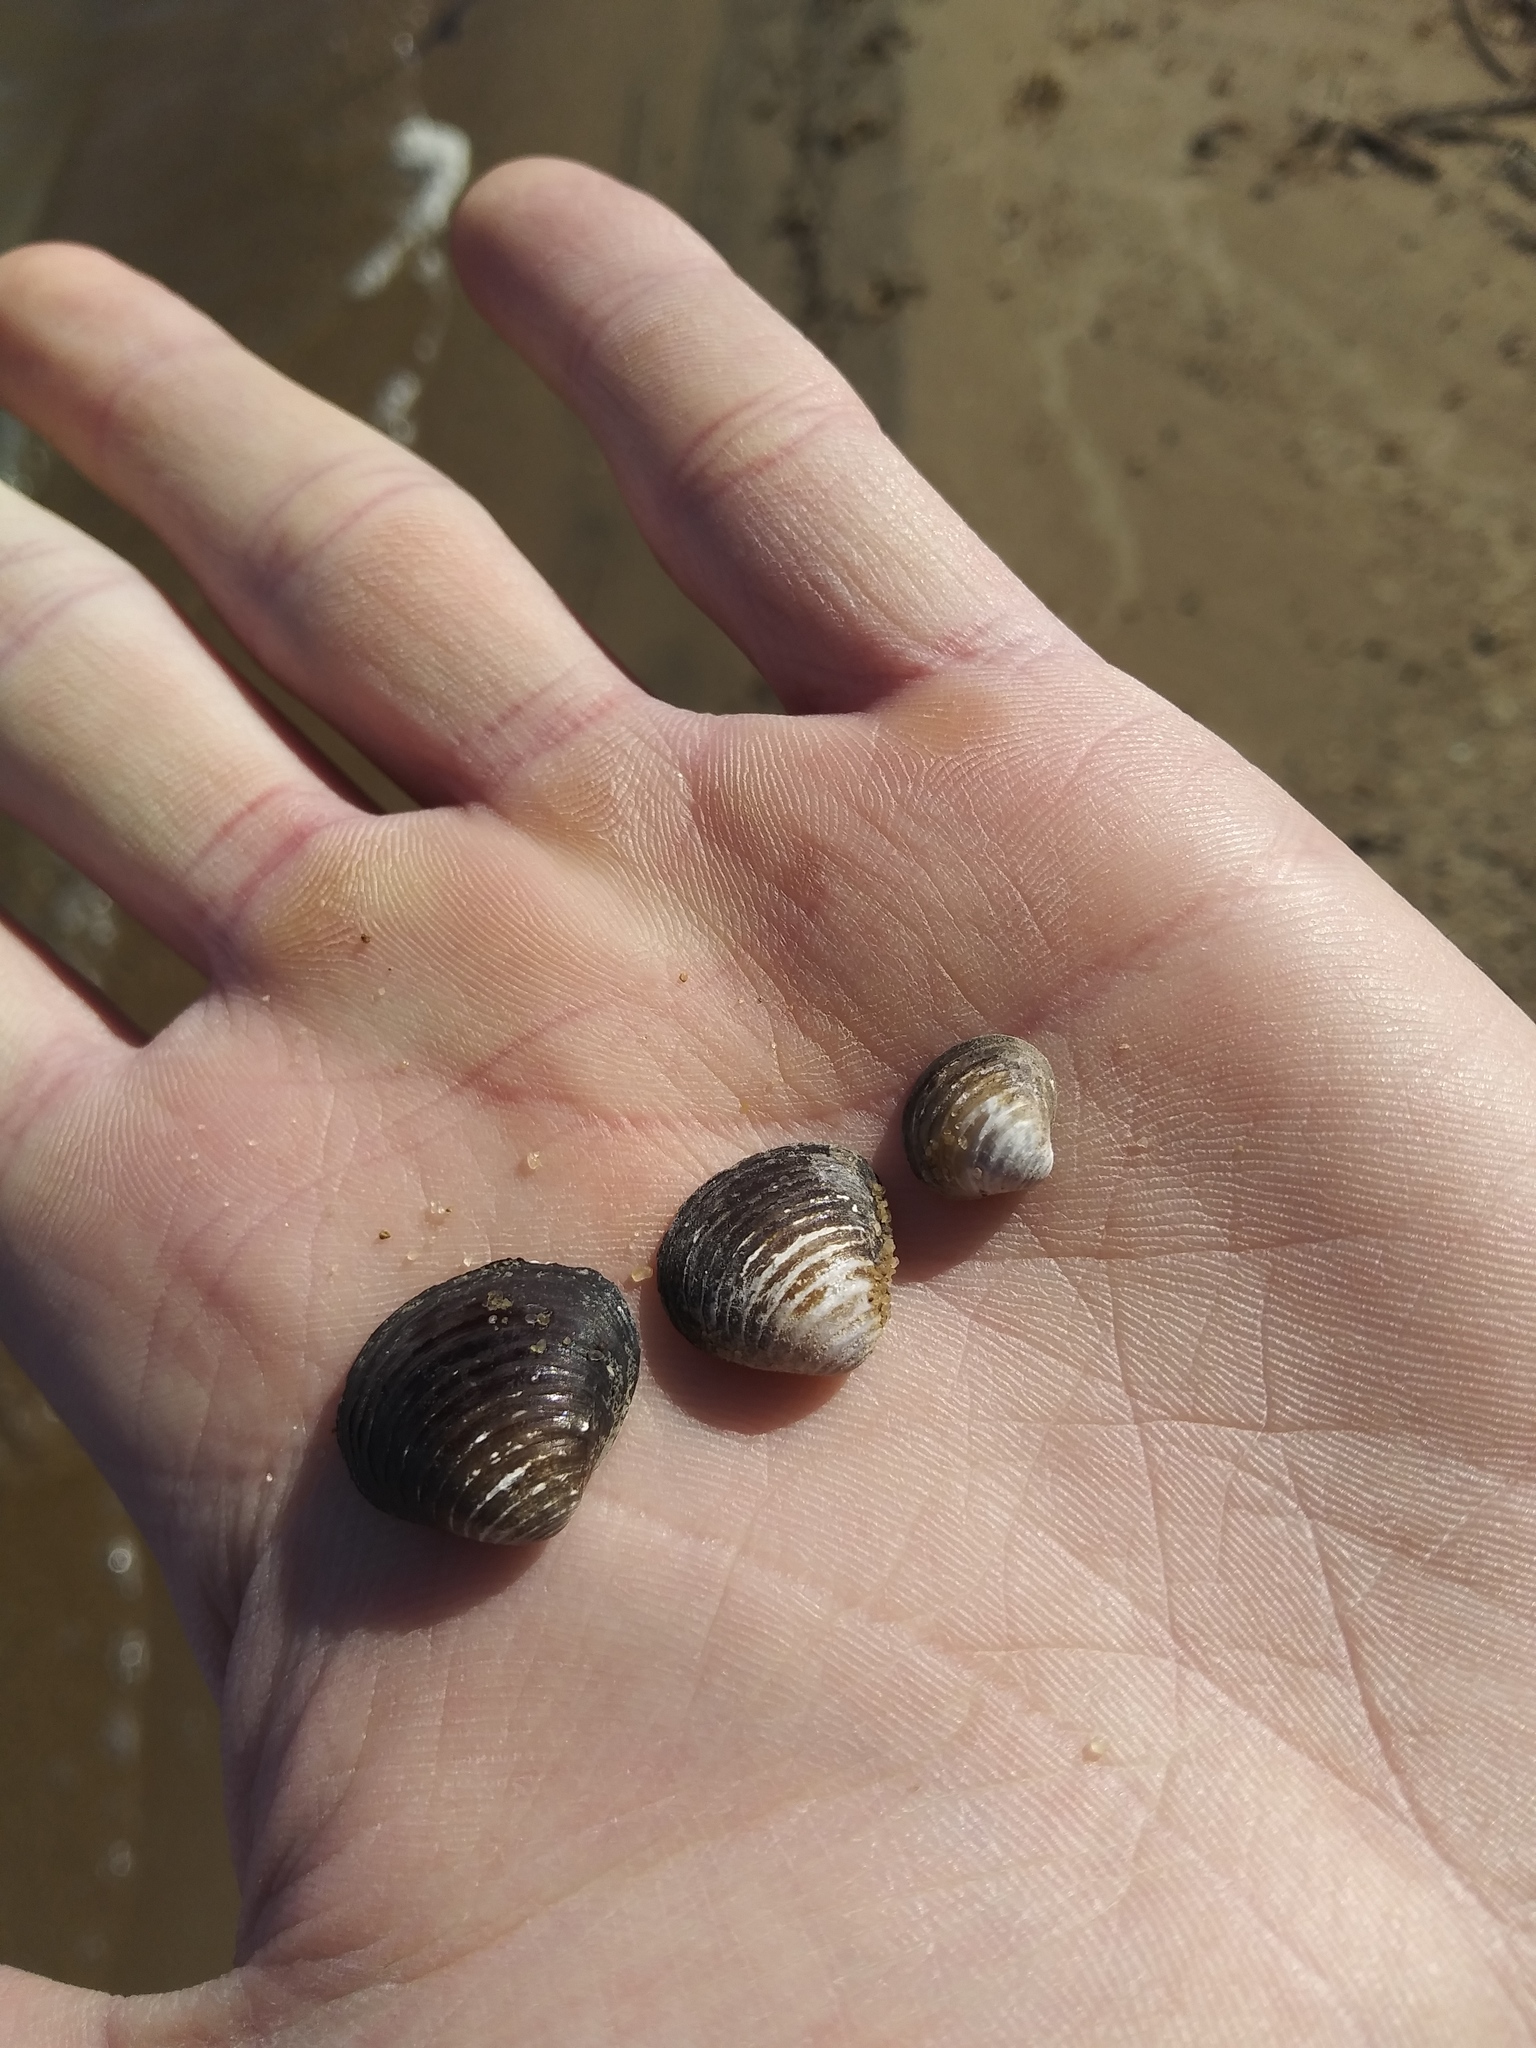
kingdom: Animalia
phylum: Mollusca
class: Bivalvia
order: Venerida
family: Cyrenidae
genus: Corbicula
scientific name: Corbicula fluminea
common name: Asian clam
